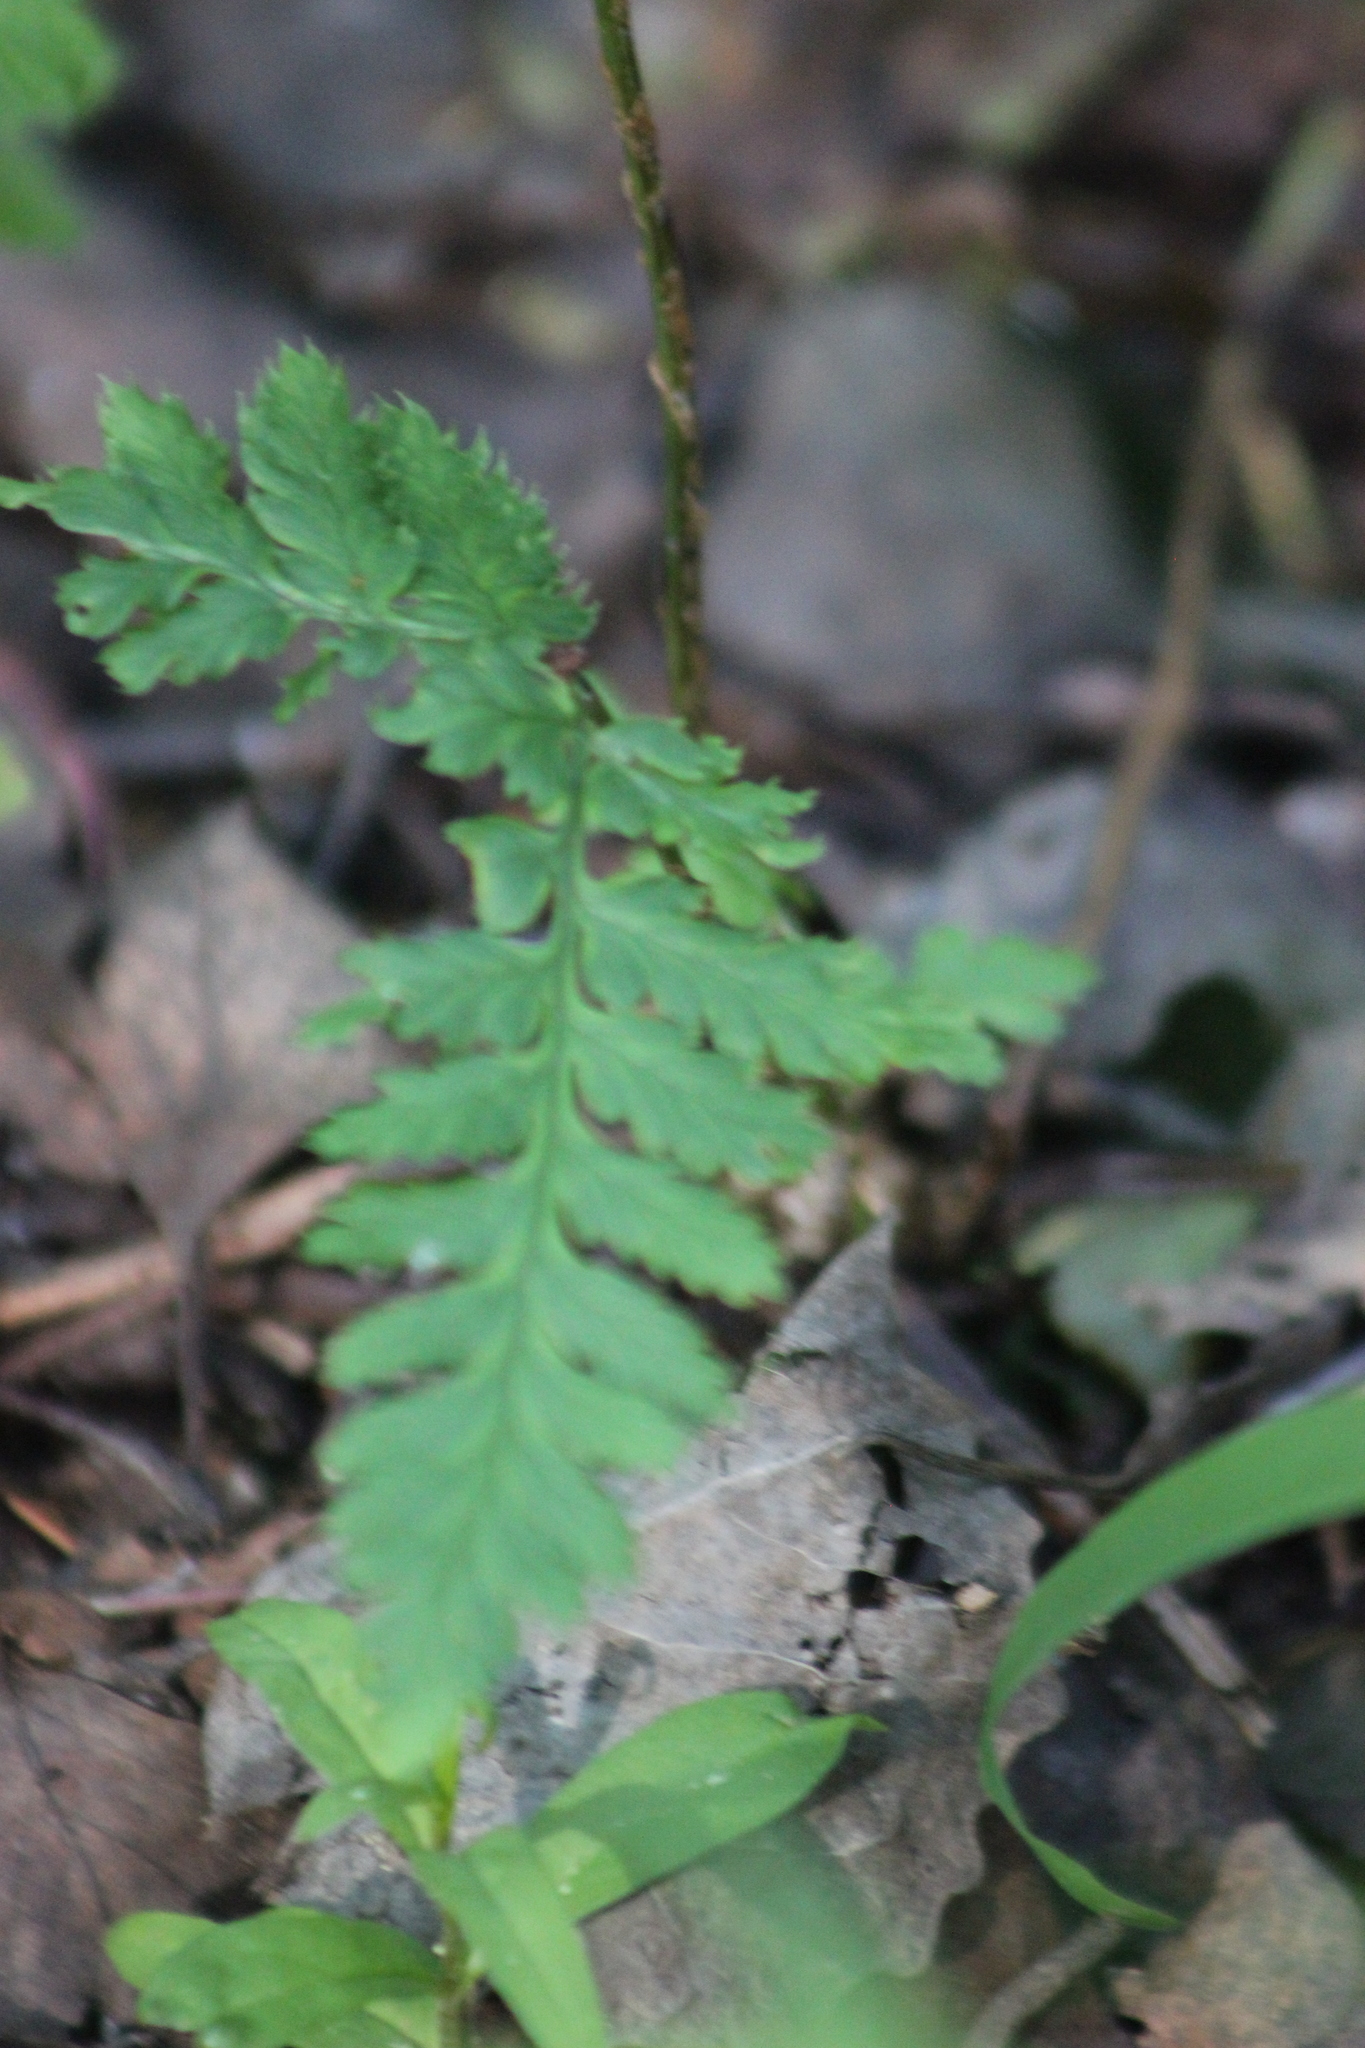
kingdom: Plantae
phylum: Tracheophyta
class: Polypodiopsida
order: Polypodiales
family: Dryopteridaceae
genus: Dryopteris
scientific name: Dryopteris carthusiana
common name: Narrow buckler-fern
